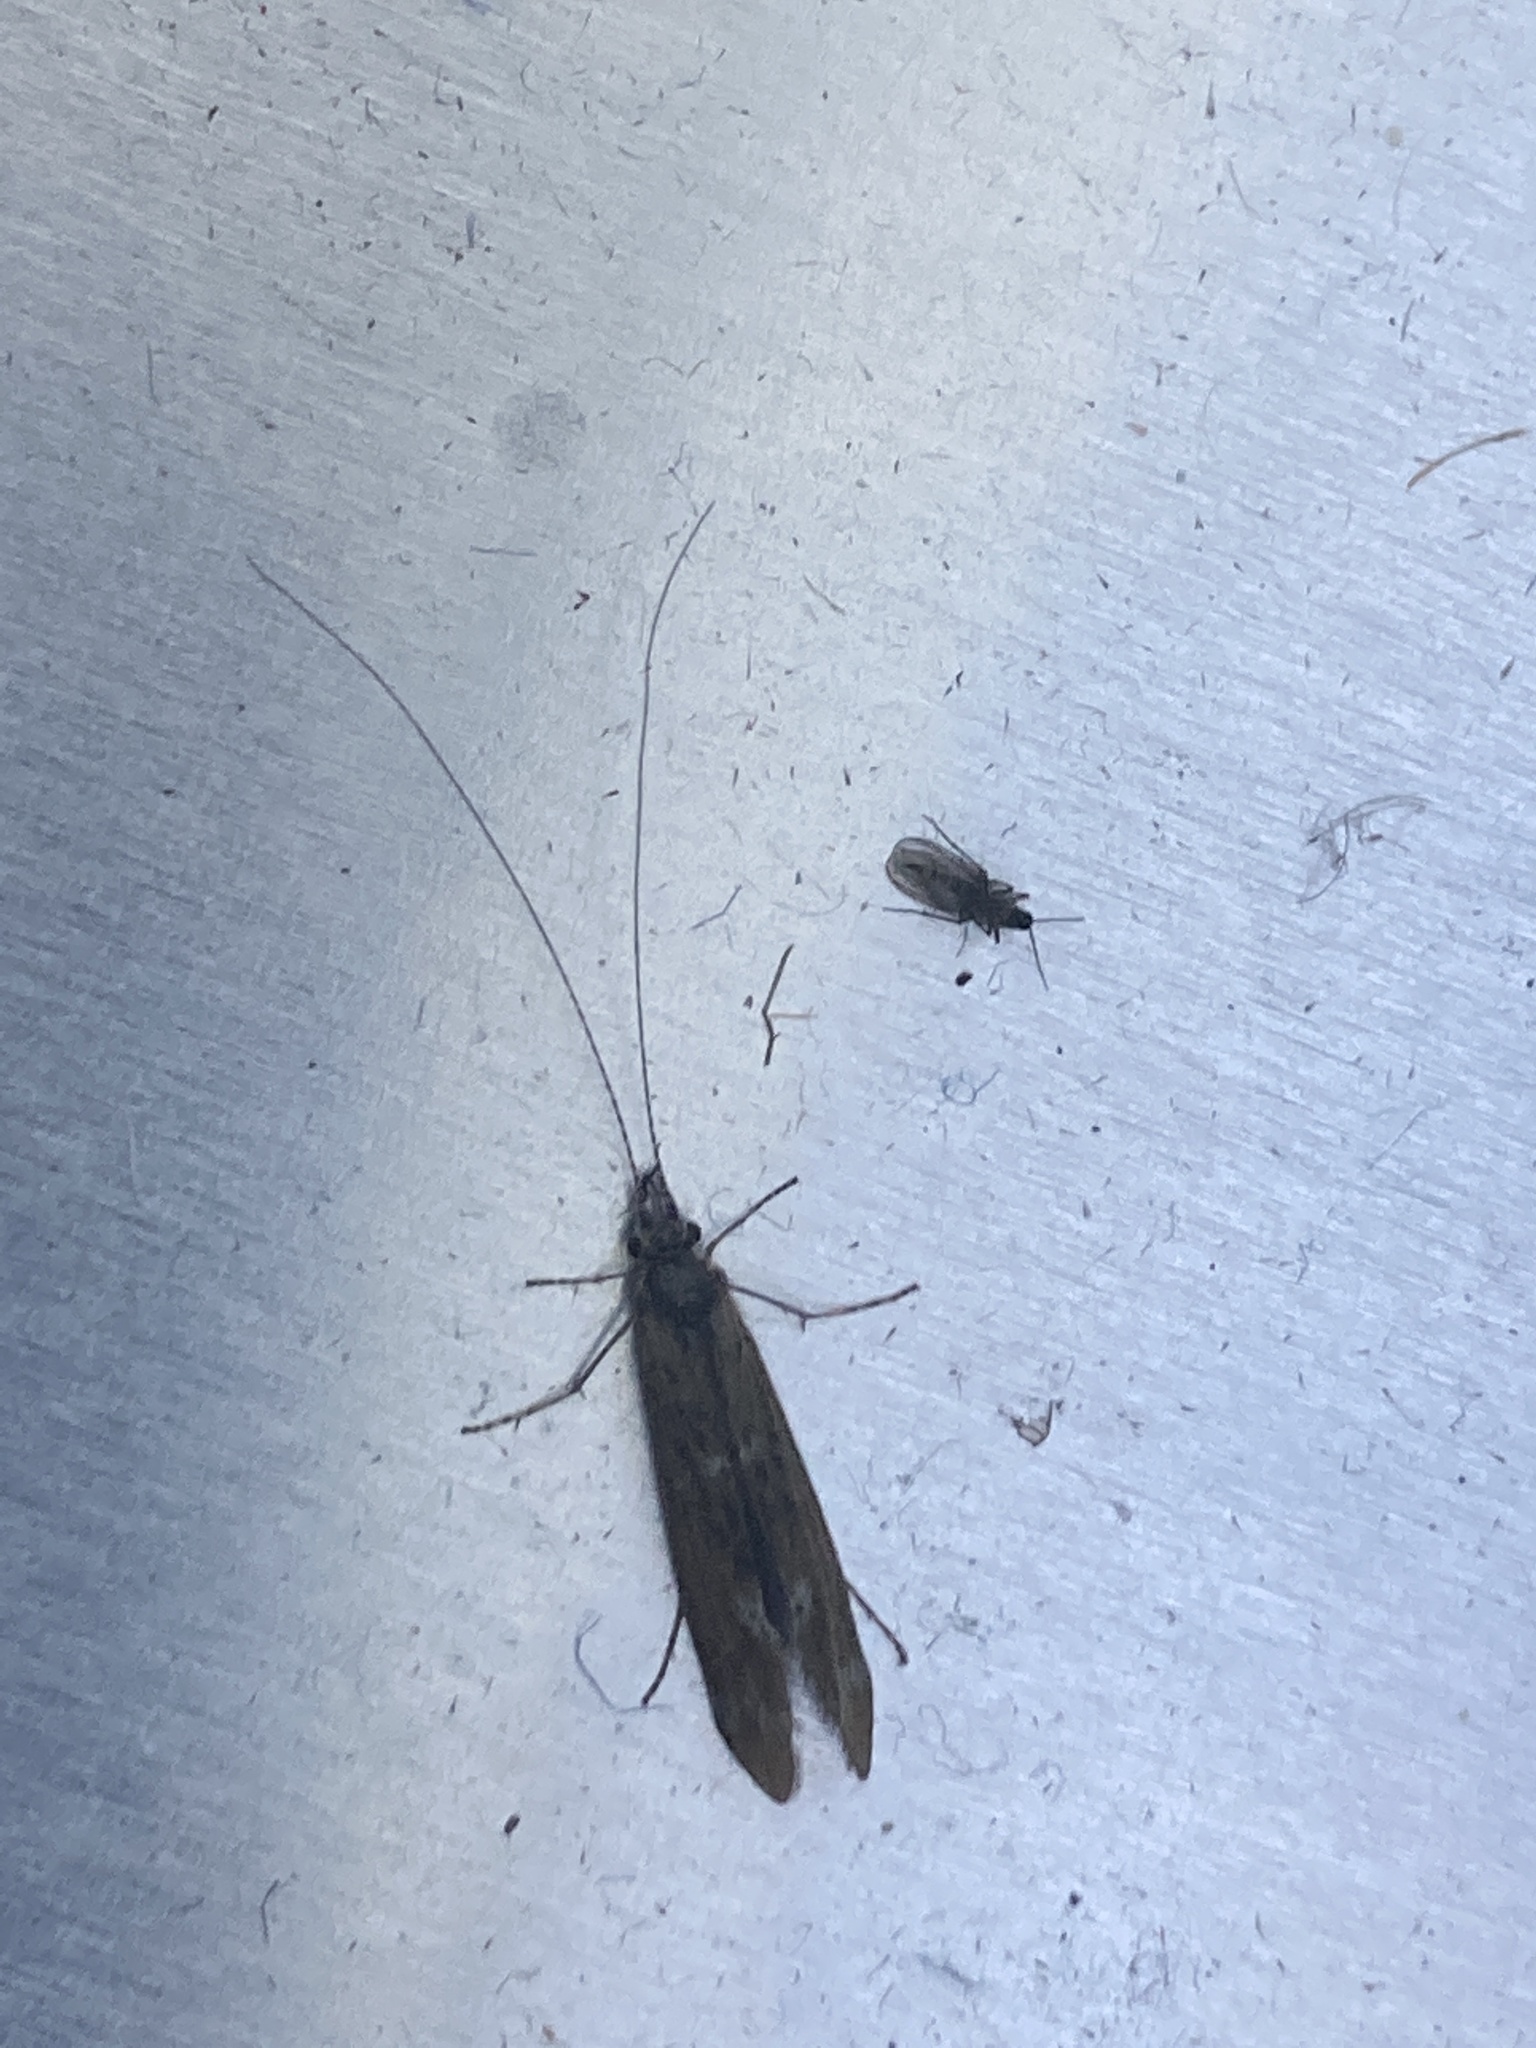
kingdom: Animalia
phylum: Arthropoda
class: Insecta
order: Trichoptera
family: Leptoceridae
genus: Mystacides
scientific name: Mystacides longicornis
